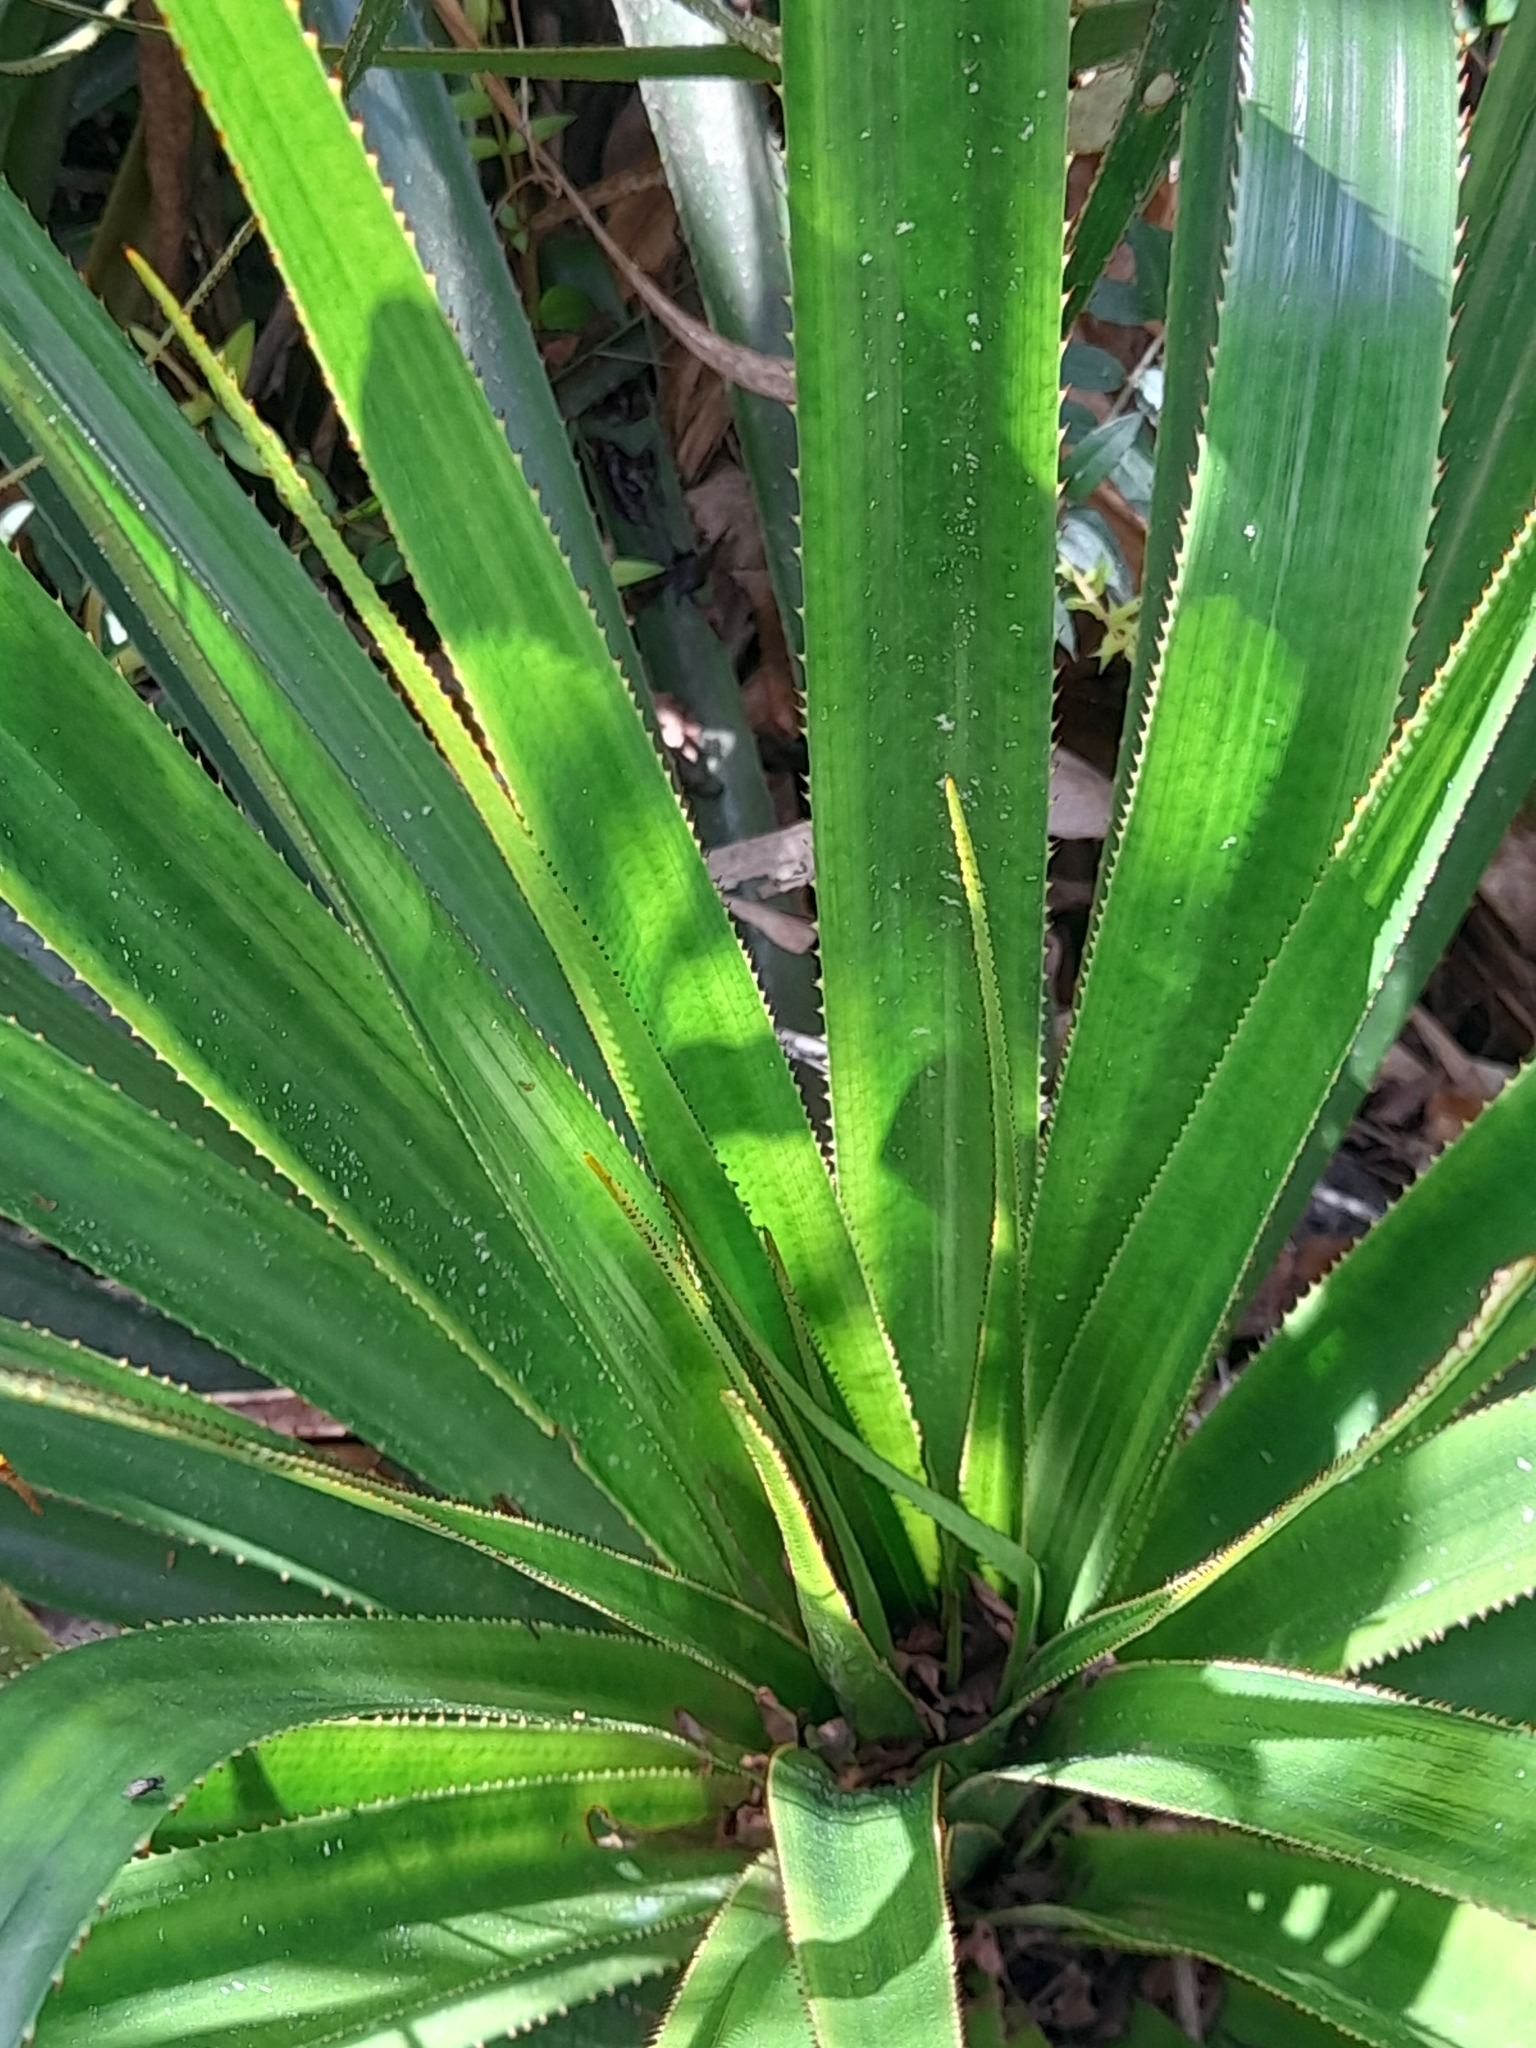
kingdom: Plantae
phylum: Tracheophyta
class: Liliopsida
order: Poales
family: Bromeliaceae
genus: Greigia
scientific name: Greigia sphacelata
